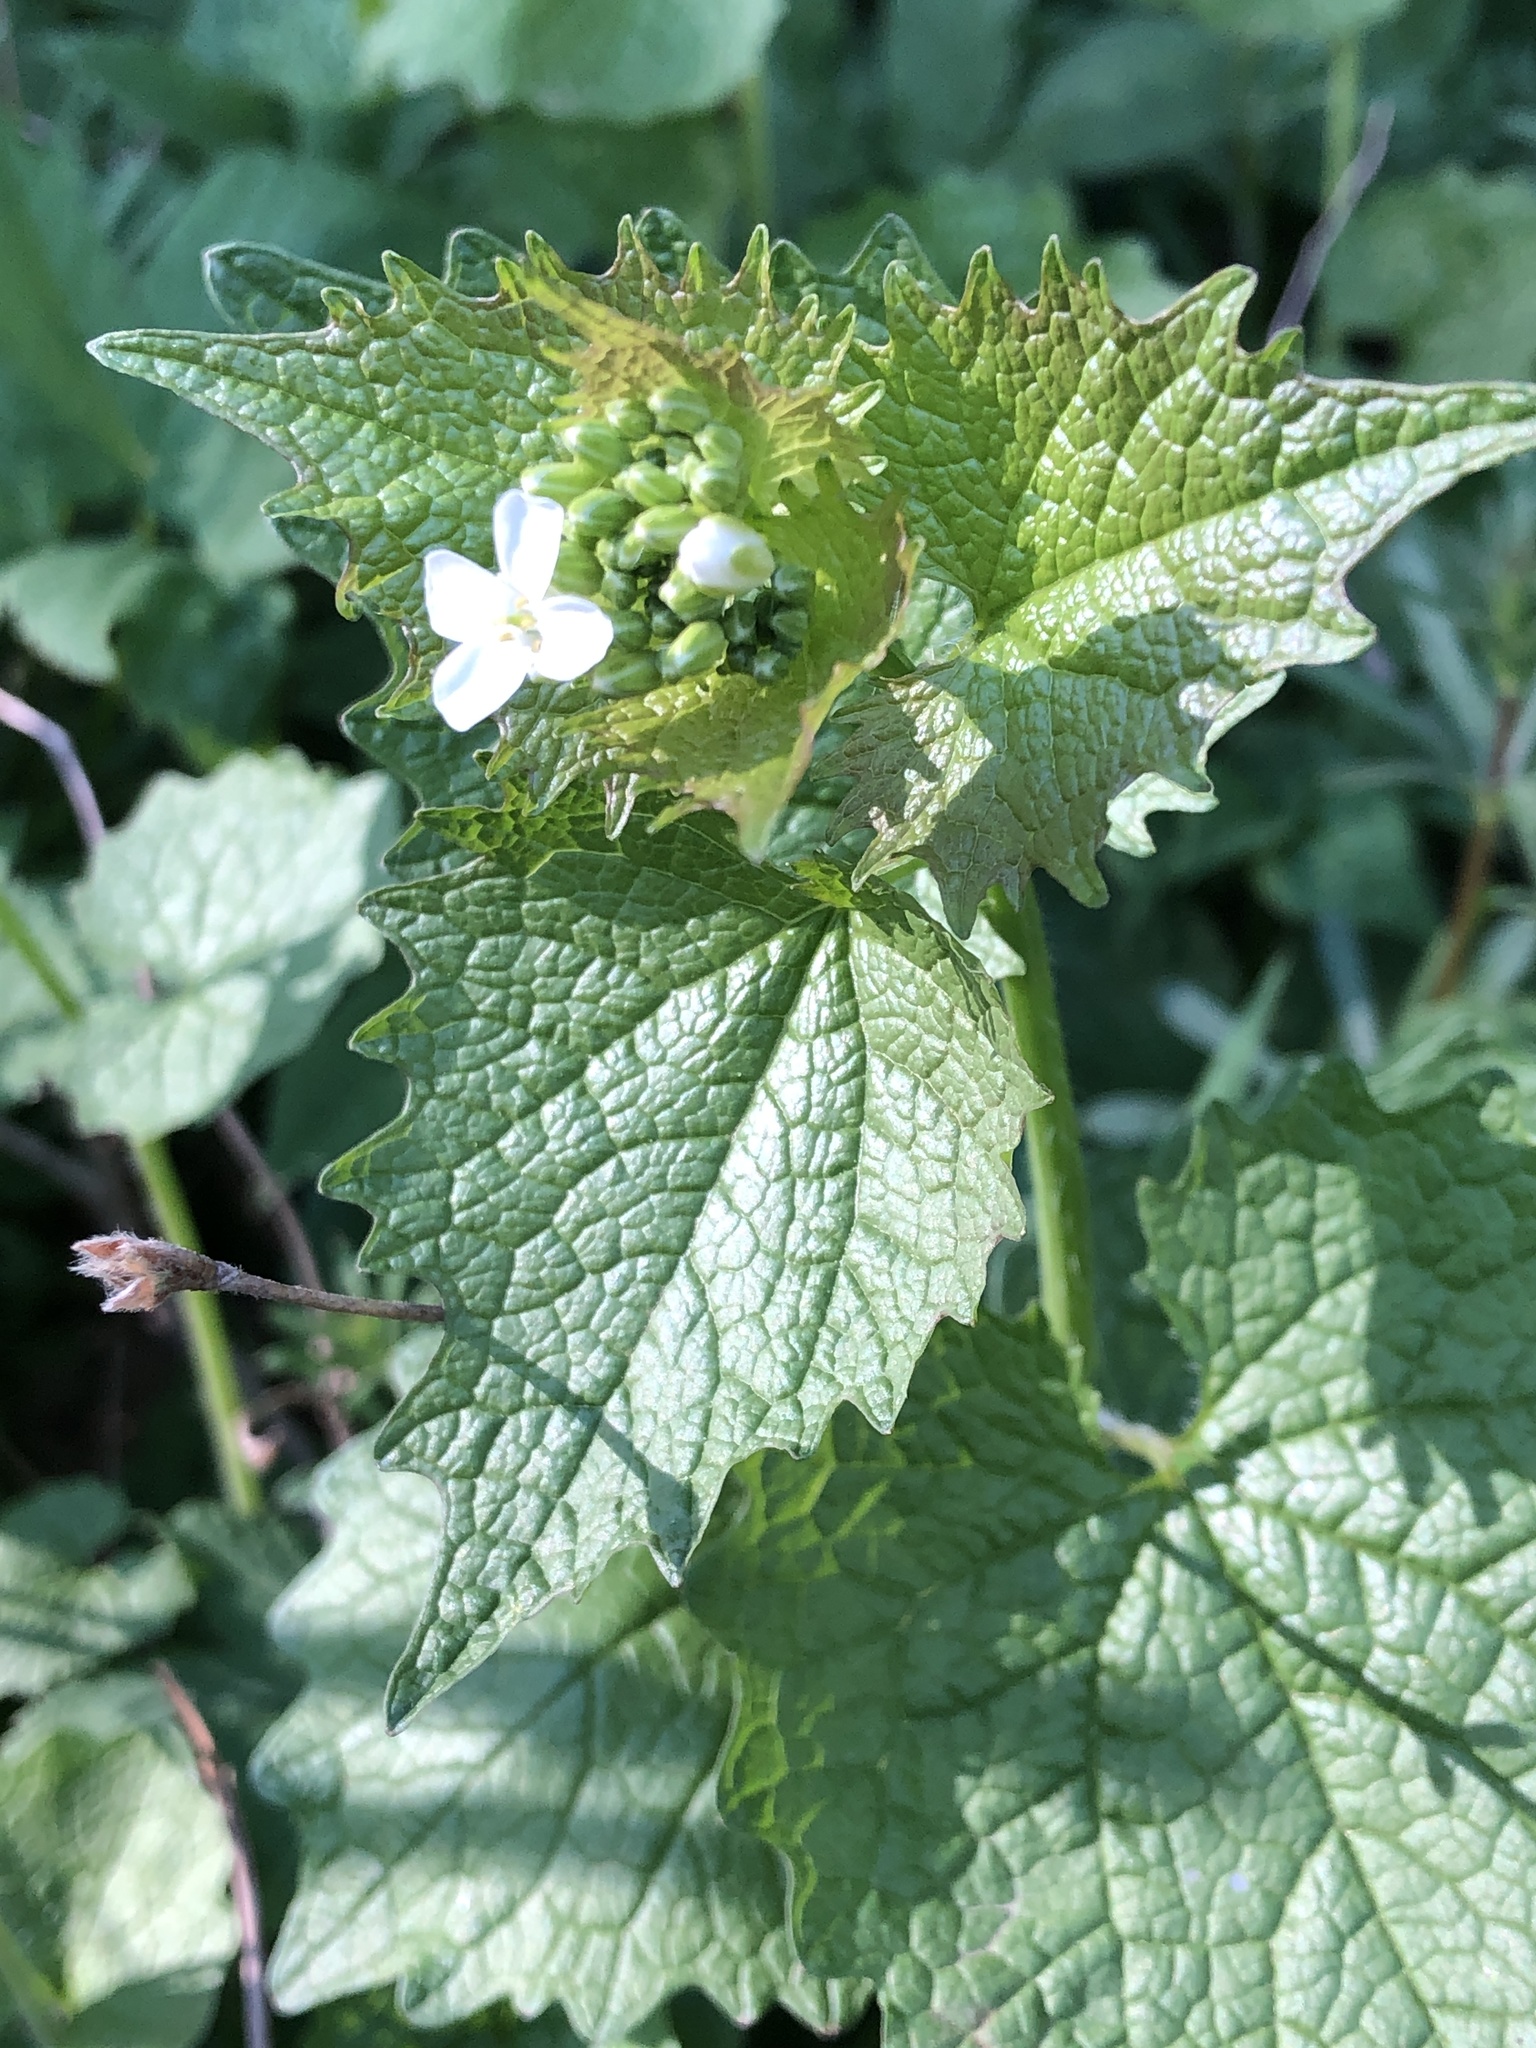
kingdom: Plantae
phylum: Tracheophyta
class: Magnoliopsida
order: Brassicales
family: Brassicaceae
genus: Alliaria
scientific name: Alliaria petiolata
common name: Garlic mustard
